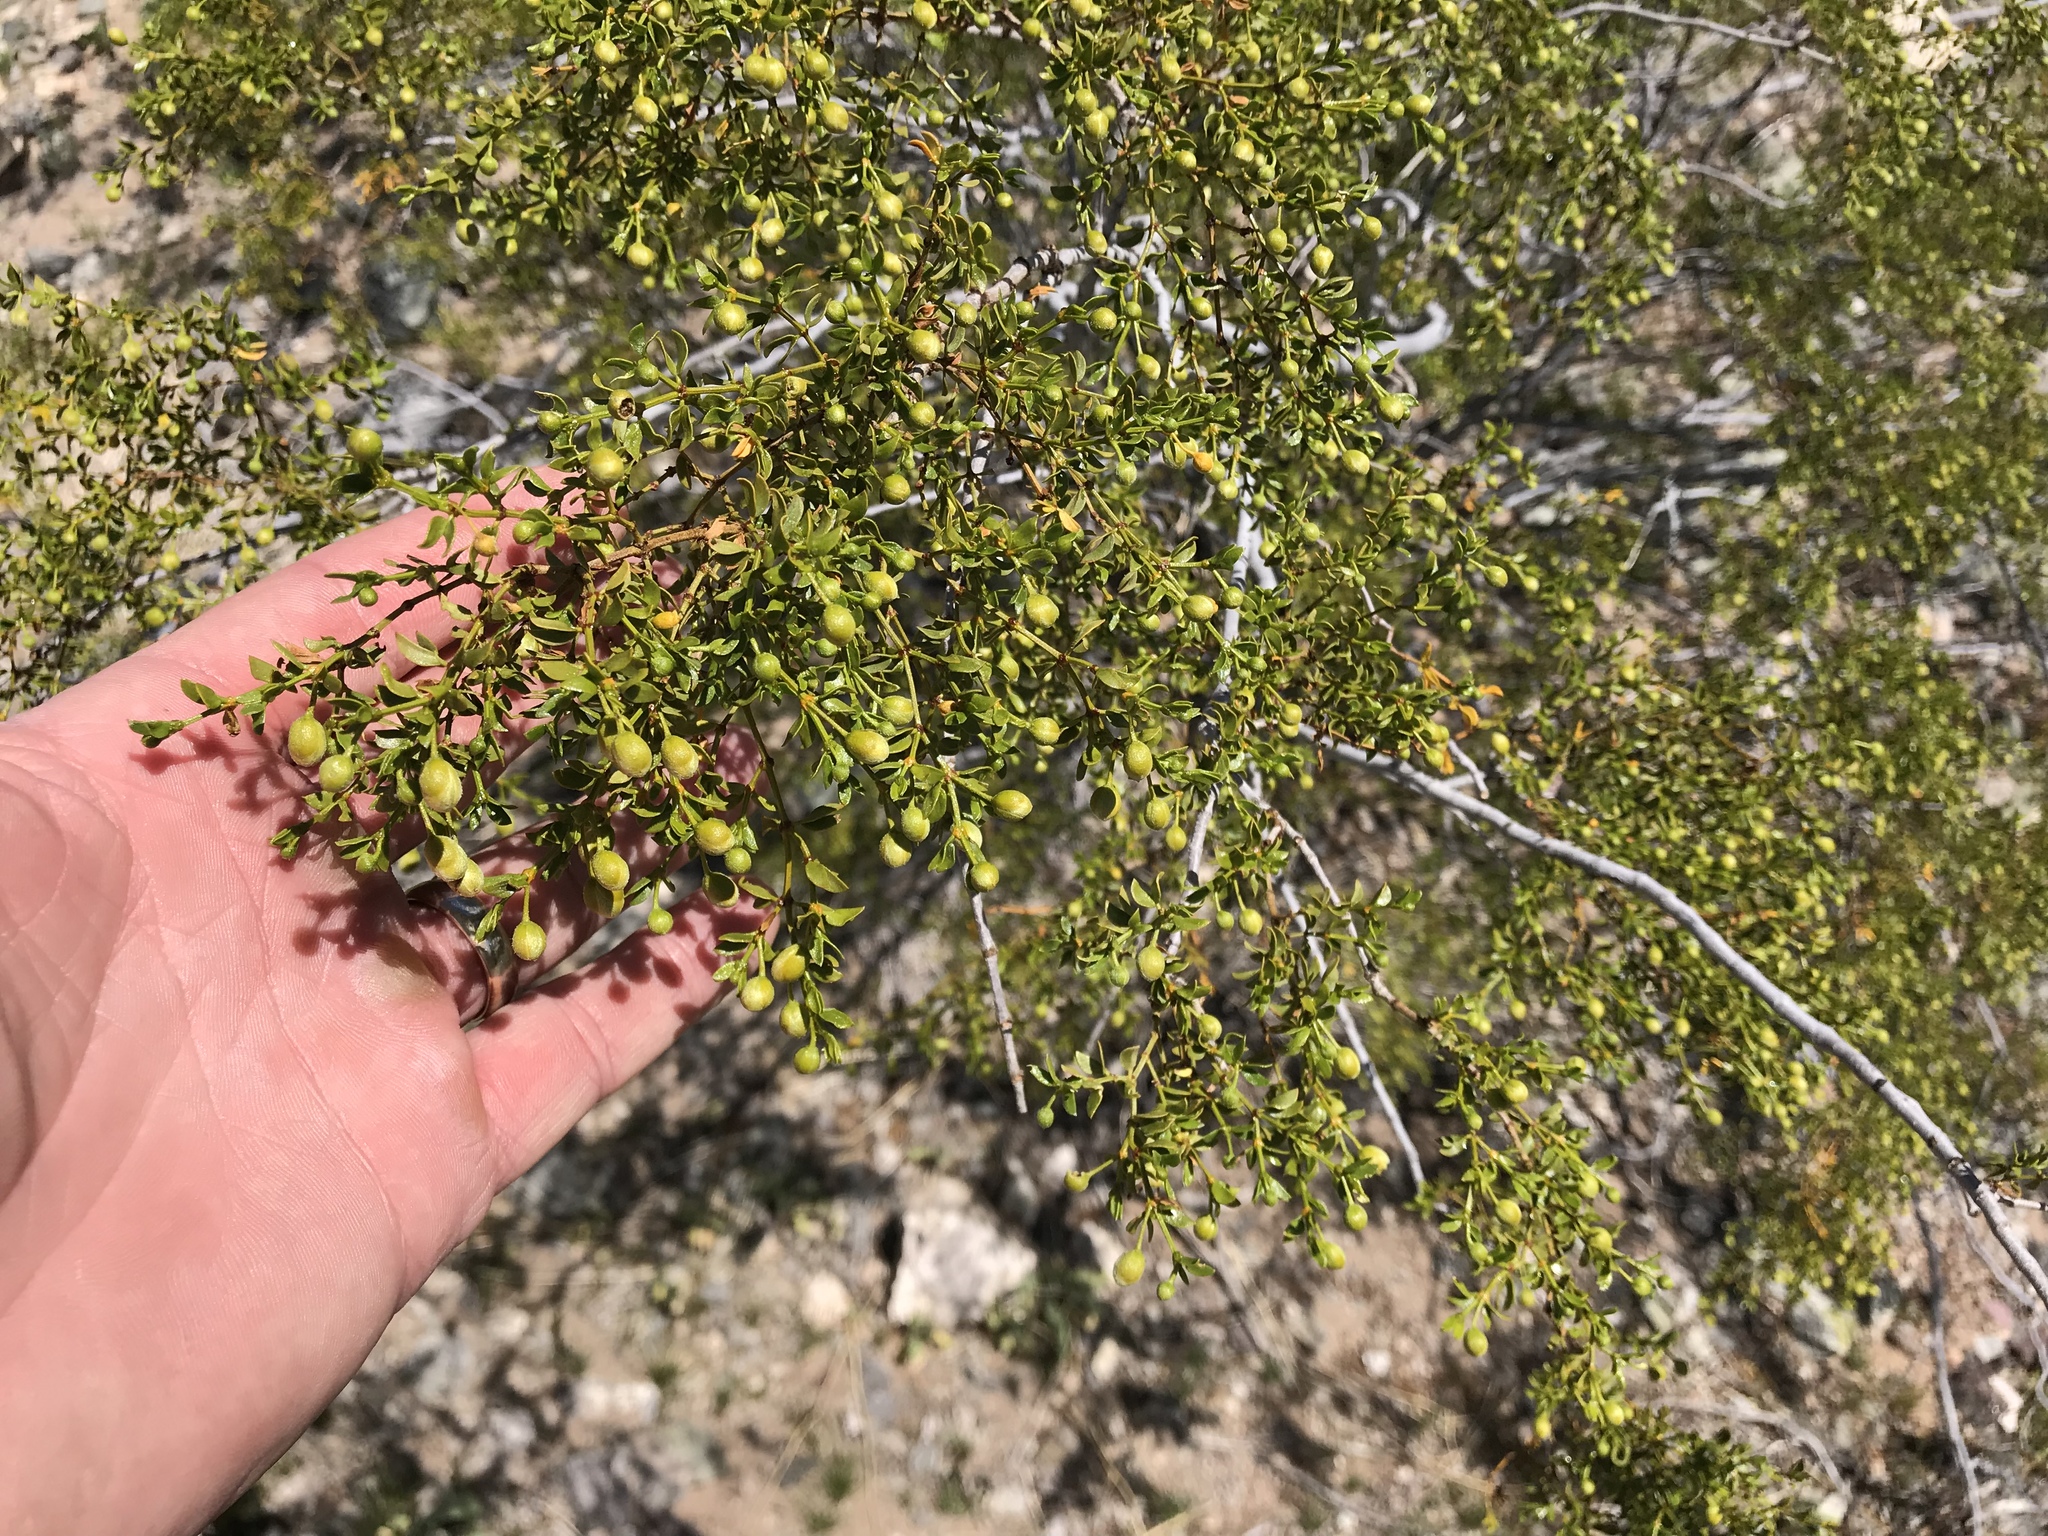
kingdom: Plantae
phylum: Tracheophyta
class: Magnoliopsida
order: Zygophyllales
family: Zygophyllaceae
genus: Larrea
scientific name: Larrea tridentata
